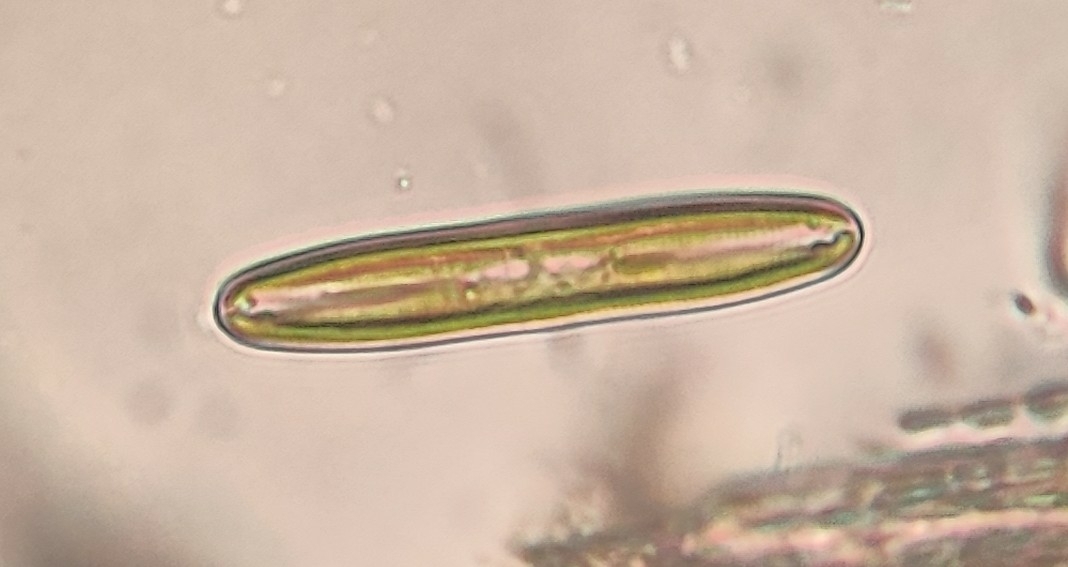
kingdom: Chromista
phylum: Ochrophyta
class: Bacillariophyceae
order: Naviculales
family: Pinnulariaceae
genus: Pinnularia
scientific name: Pinnularia
